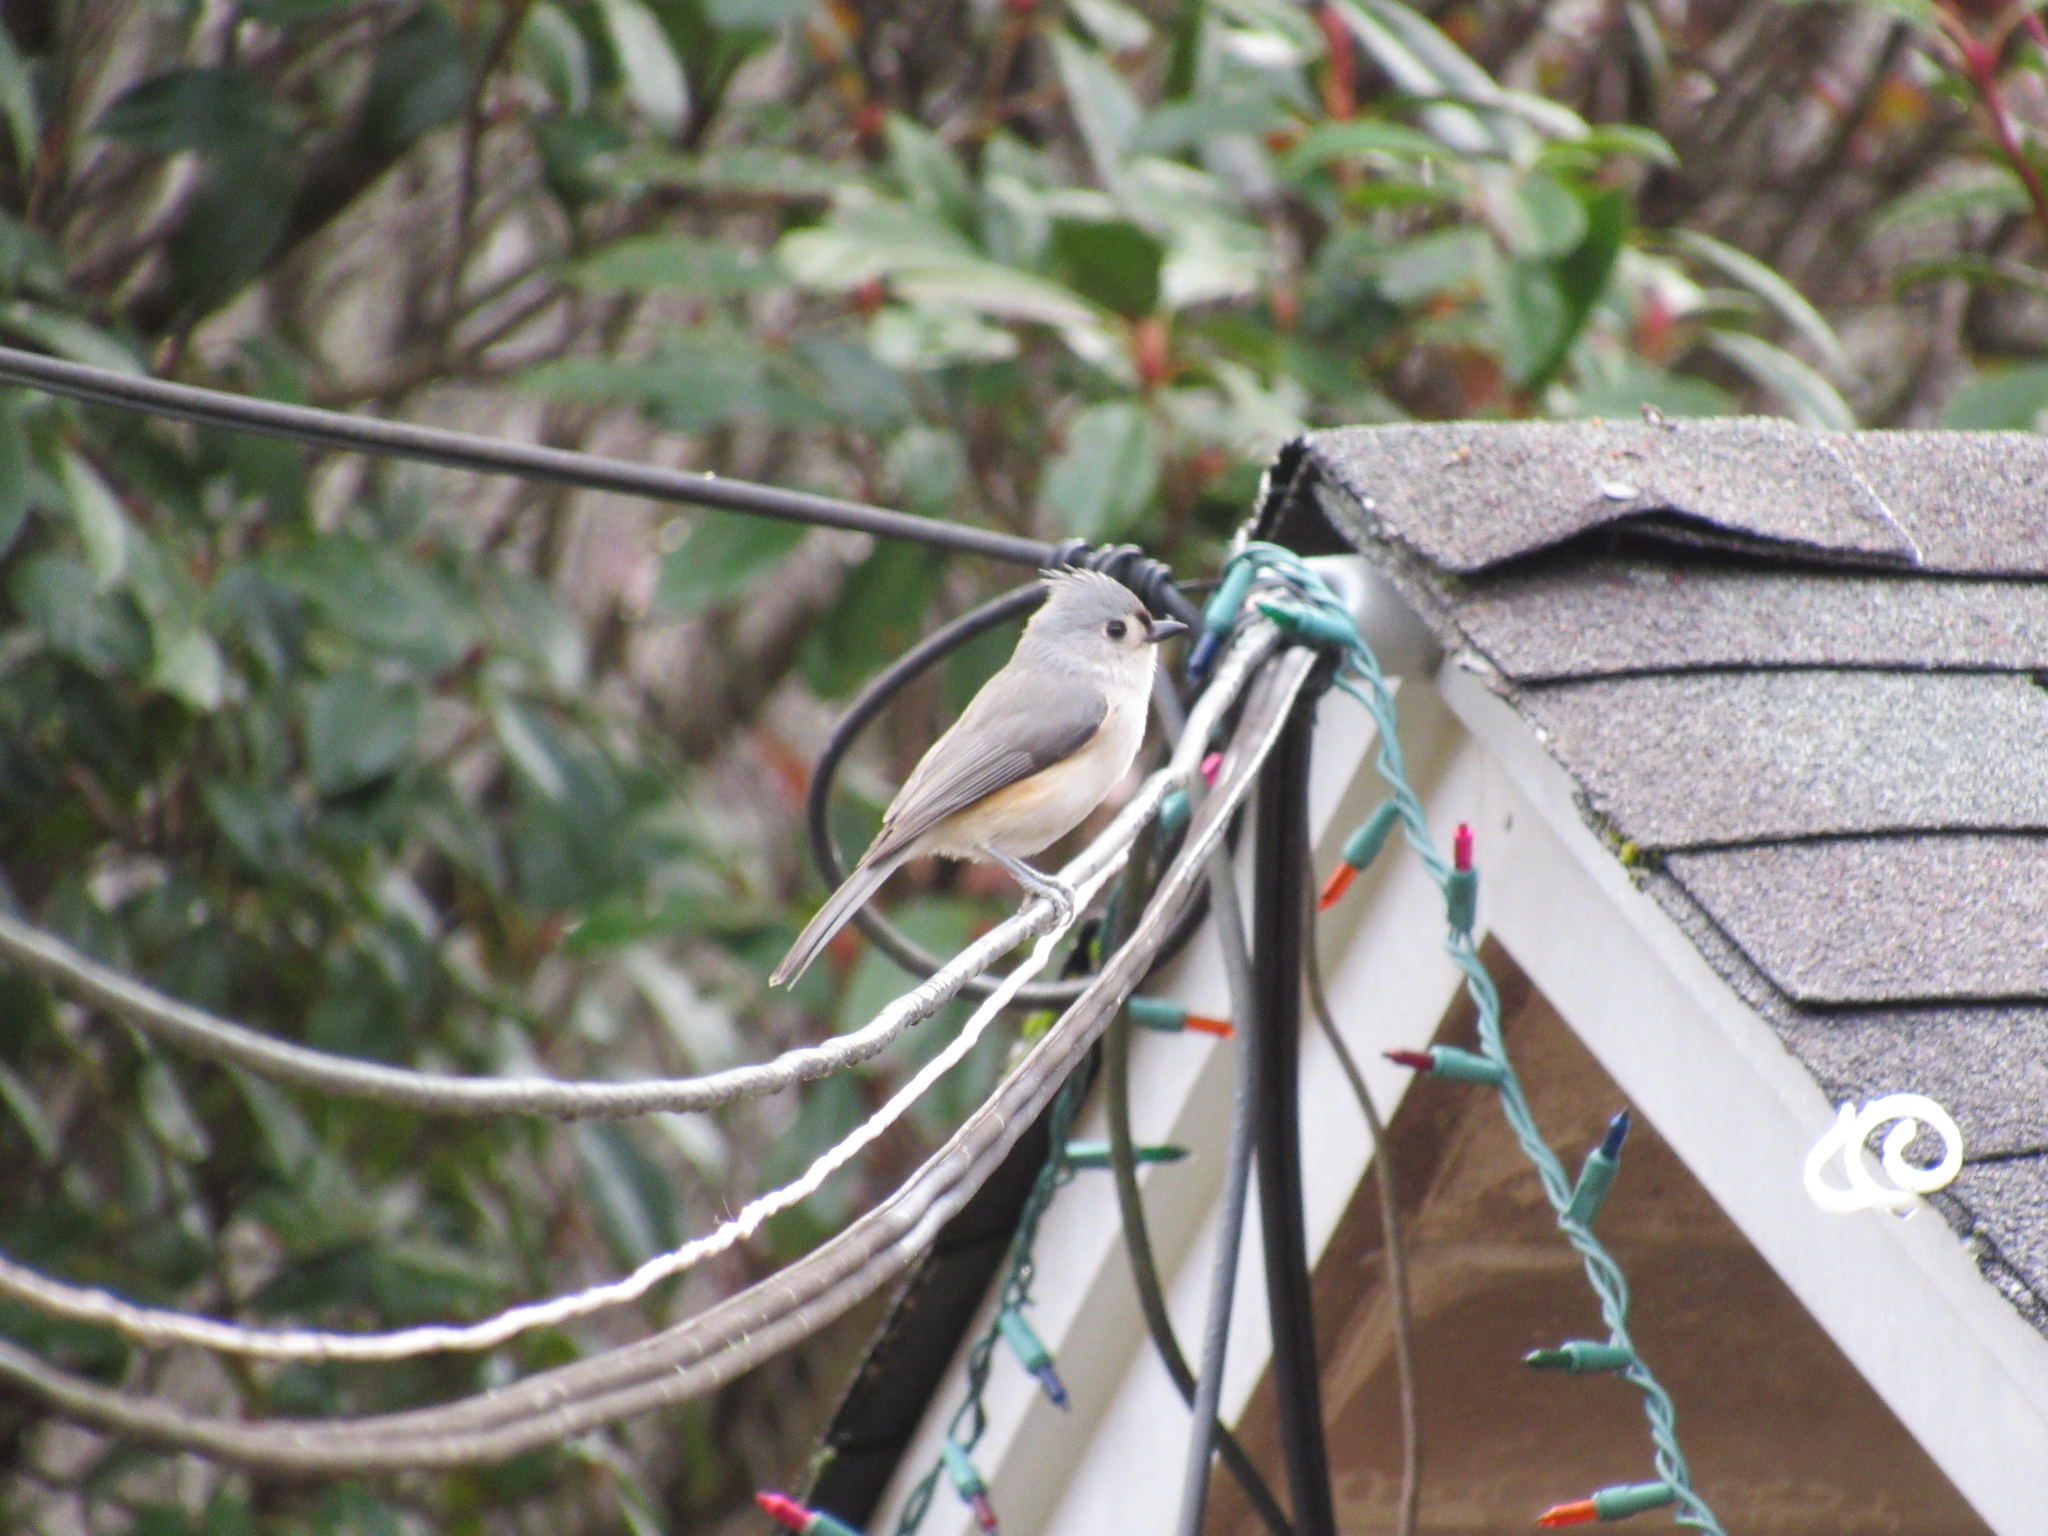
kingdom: Animalia
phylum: Chordata
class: Aves
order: Passeriformes
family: Paridae
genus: Baeolophus
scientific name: Baeolophus bicolor
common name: Tufted titmouse
